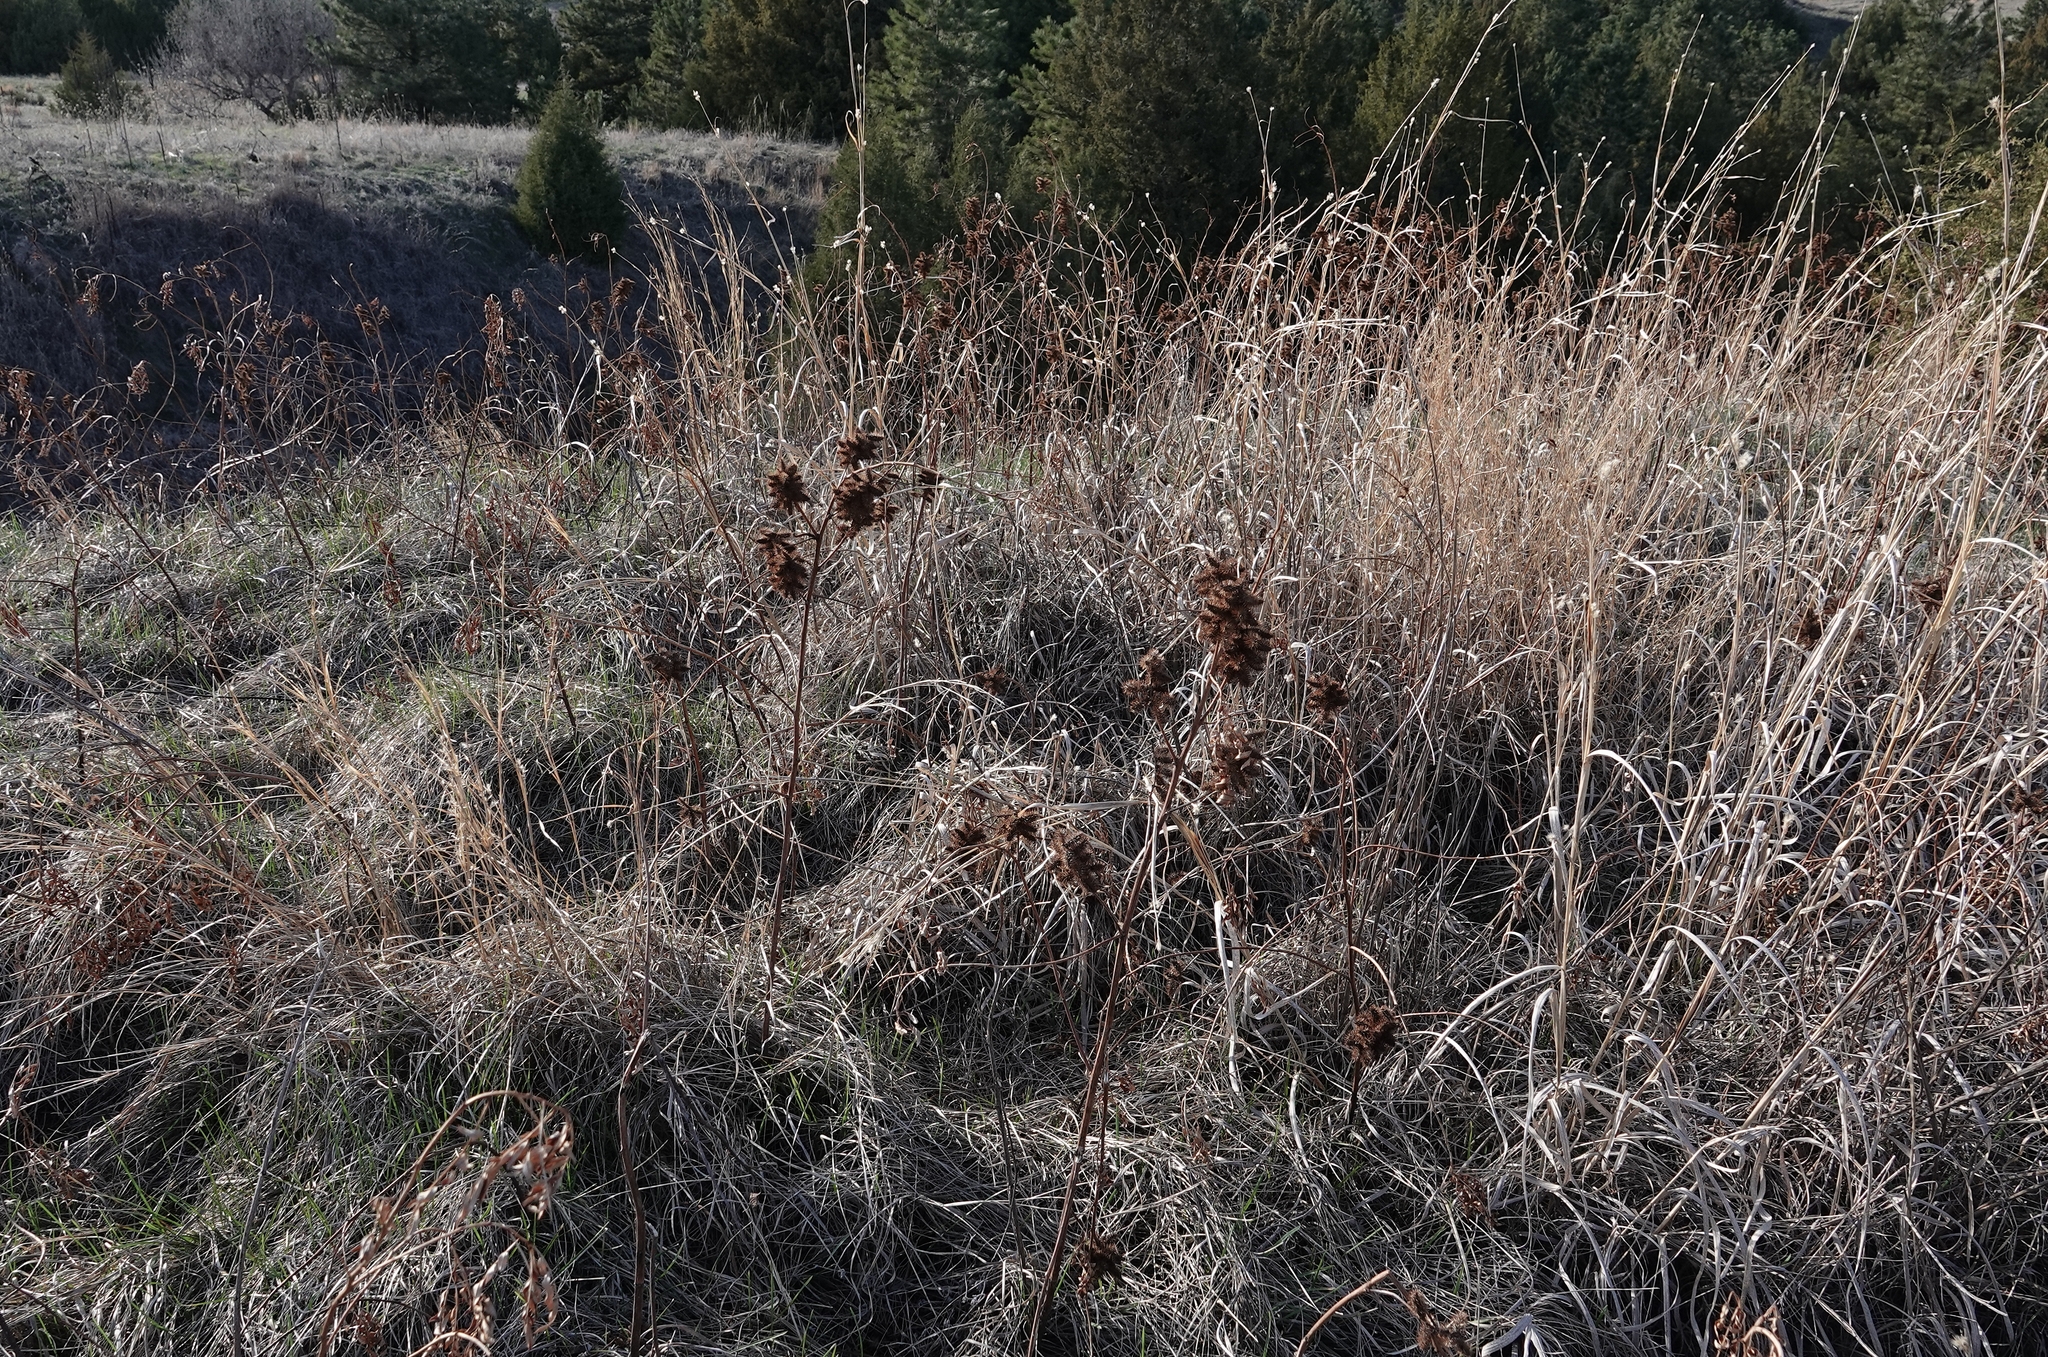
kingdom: Plantae
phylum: Tracheophyta
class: Magnoliopsida
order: Fabales
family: Fabaceae
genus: Glycyrrhiza
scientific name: Glycyrrhiza lepidota
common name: American liquorice
